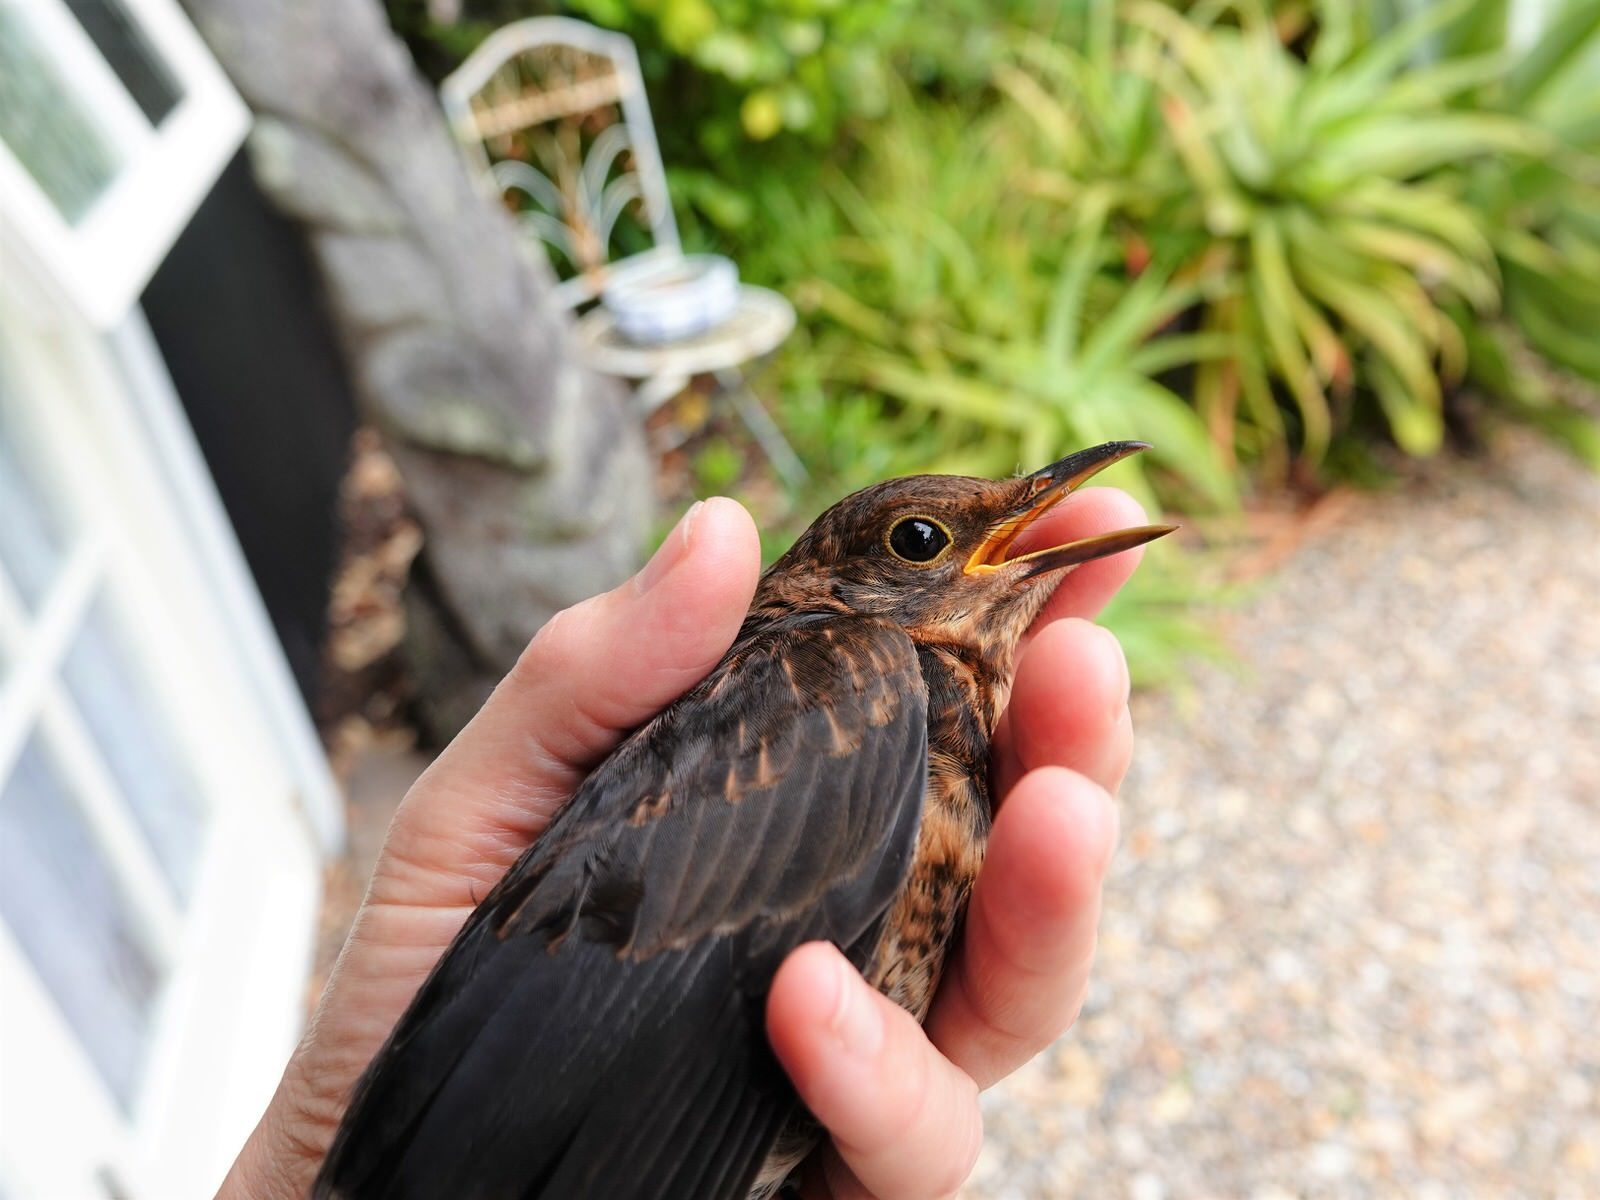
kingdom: Animalia
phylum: Chordata
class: Aves
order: Passeriformes
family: Turdidae
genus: Turdus
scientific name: Turdus merula
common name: Common blackbird
